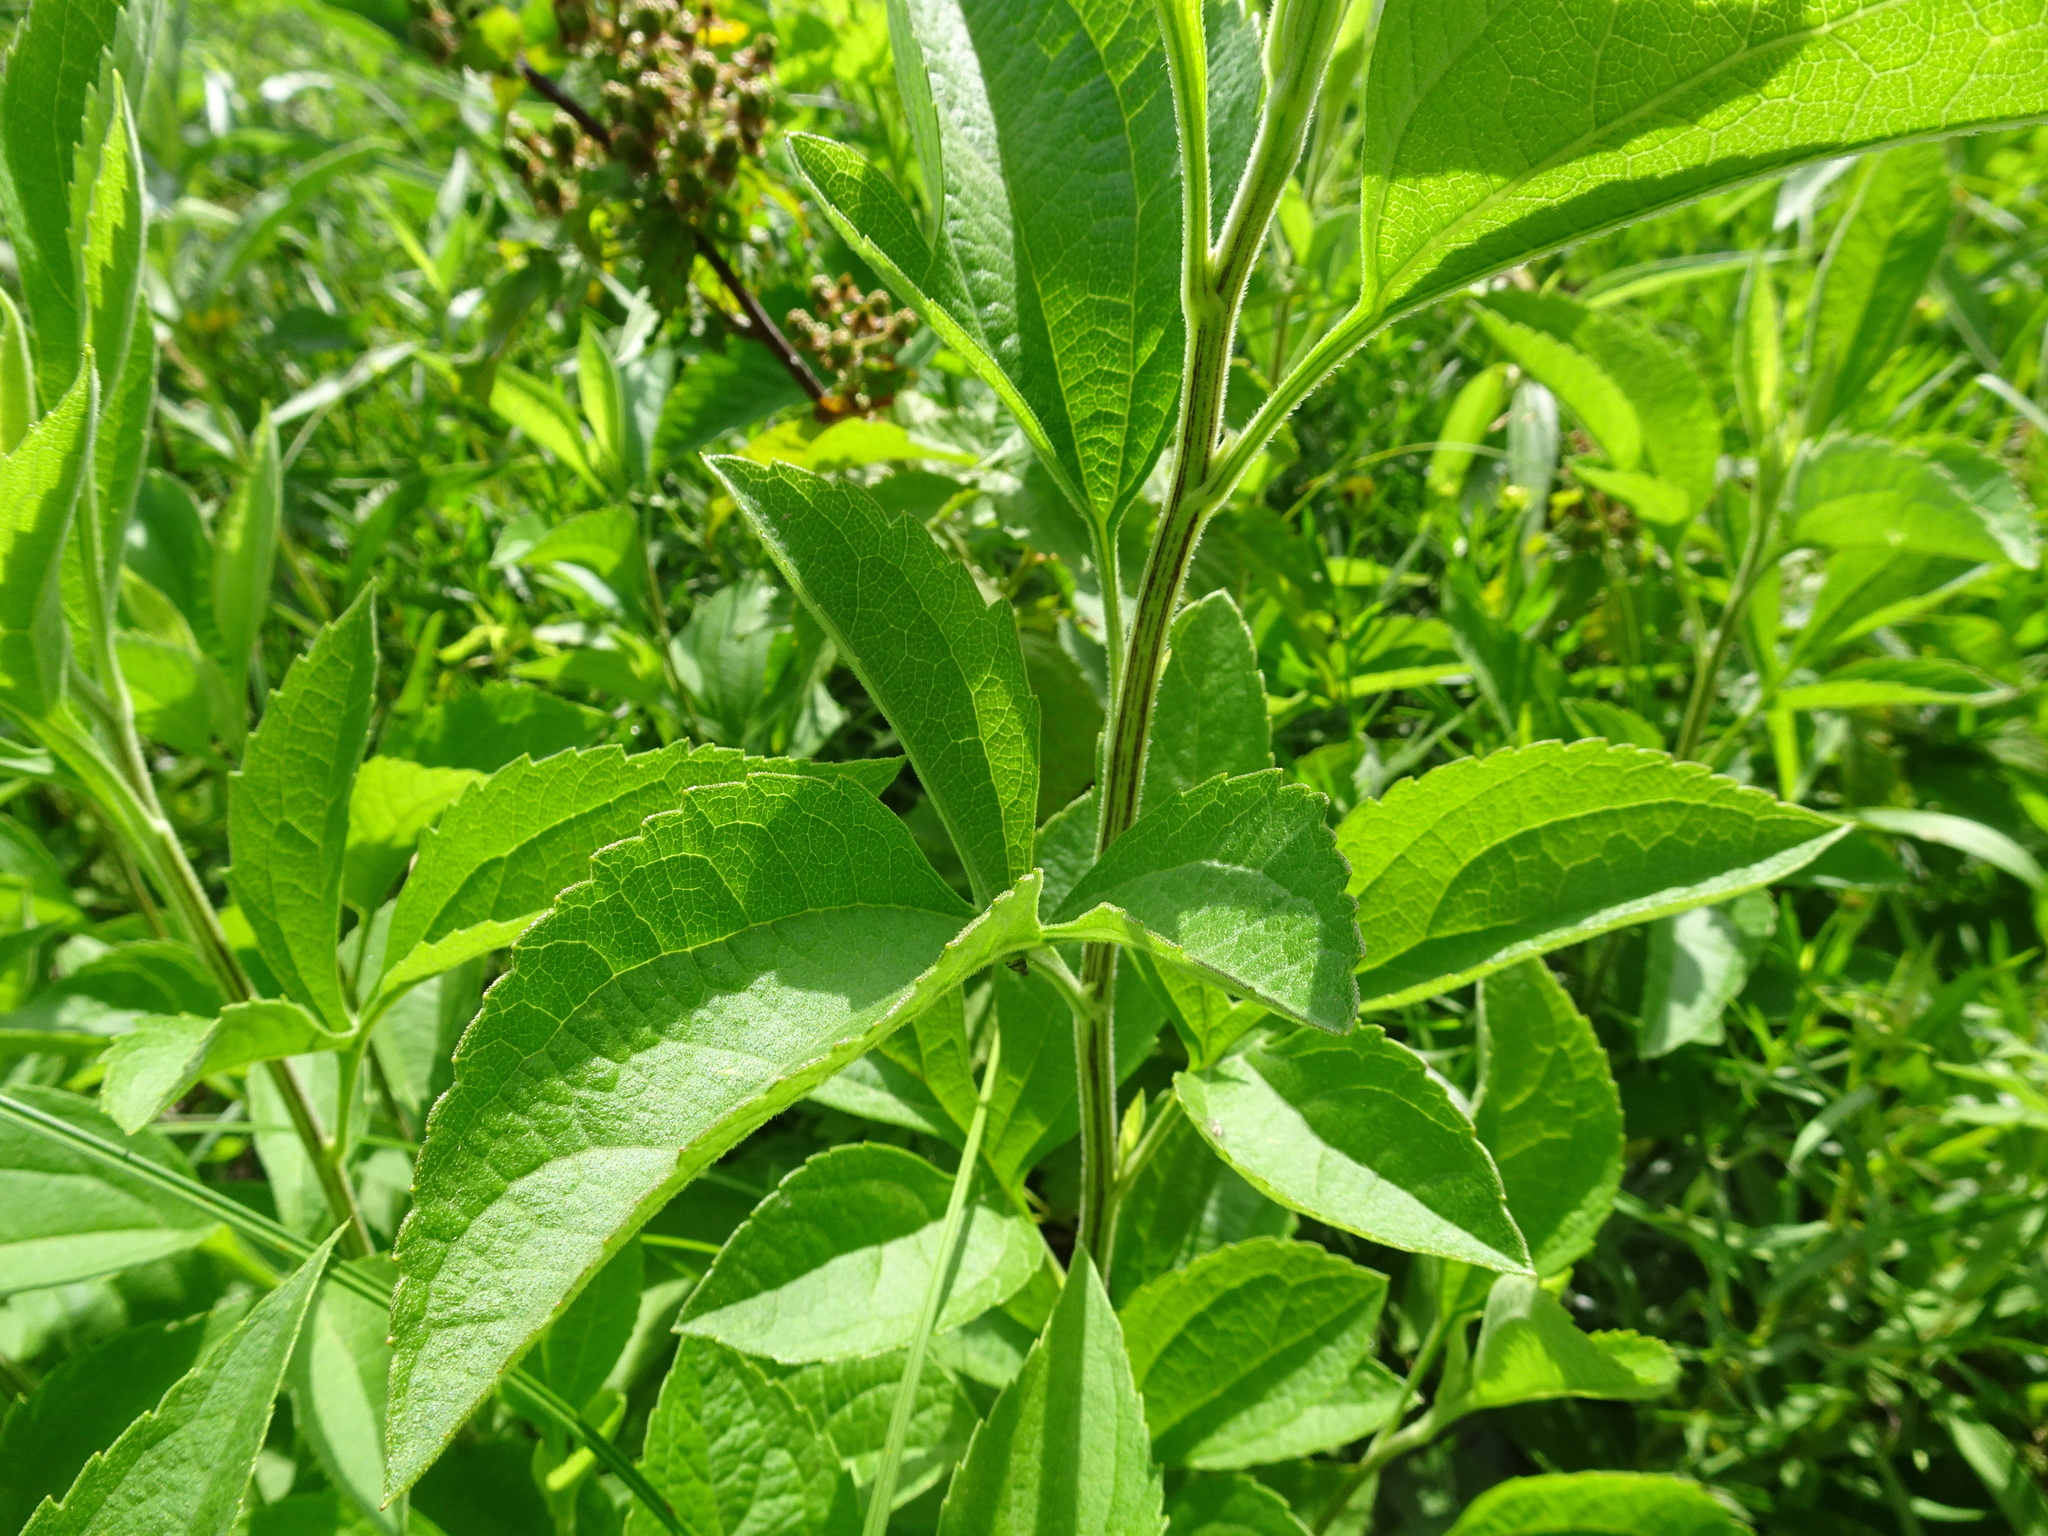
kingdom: Plantae
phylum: Tracheophyta
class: Magnoliopsida
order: Asterales
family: Asteraceae
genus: Rudbeckia
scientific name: Rudbeckia subtomentosa
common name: Sweet coneflower
